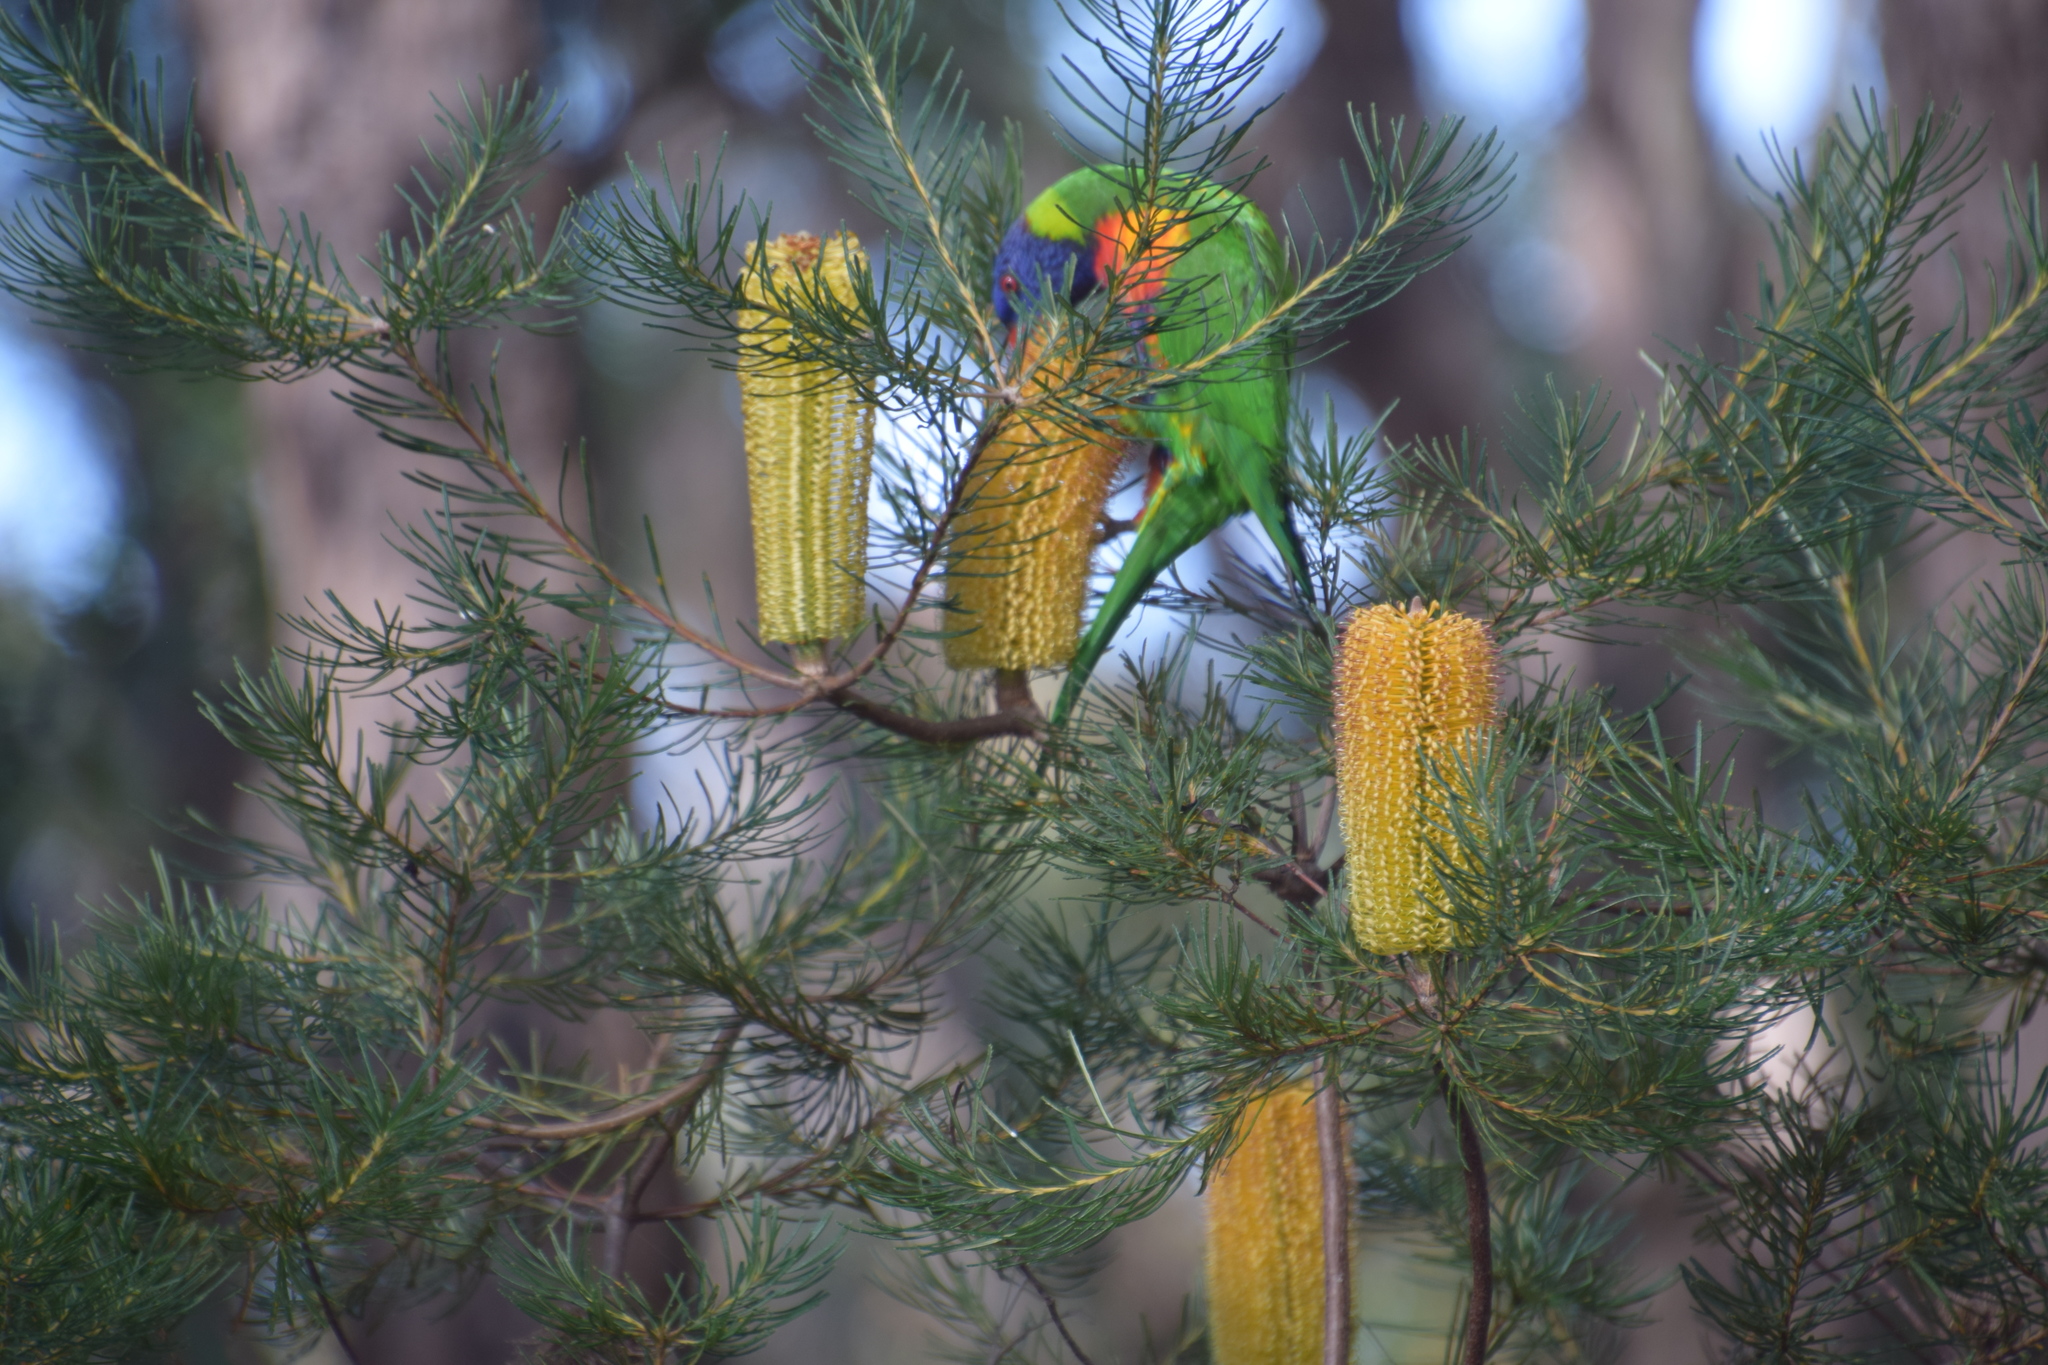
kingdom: Animalia
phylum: Chordata
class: Aves
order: Psittaciformes
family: Psittacidae
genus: Trichoglossus
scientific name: Trichoglossus haematodus
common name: Coconut lorikeet
